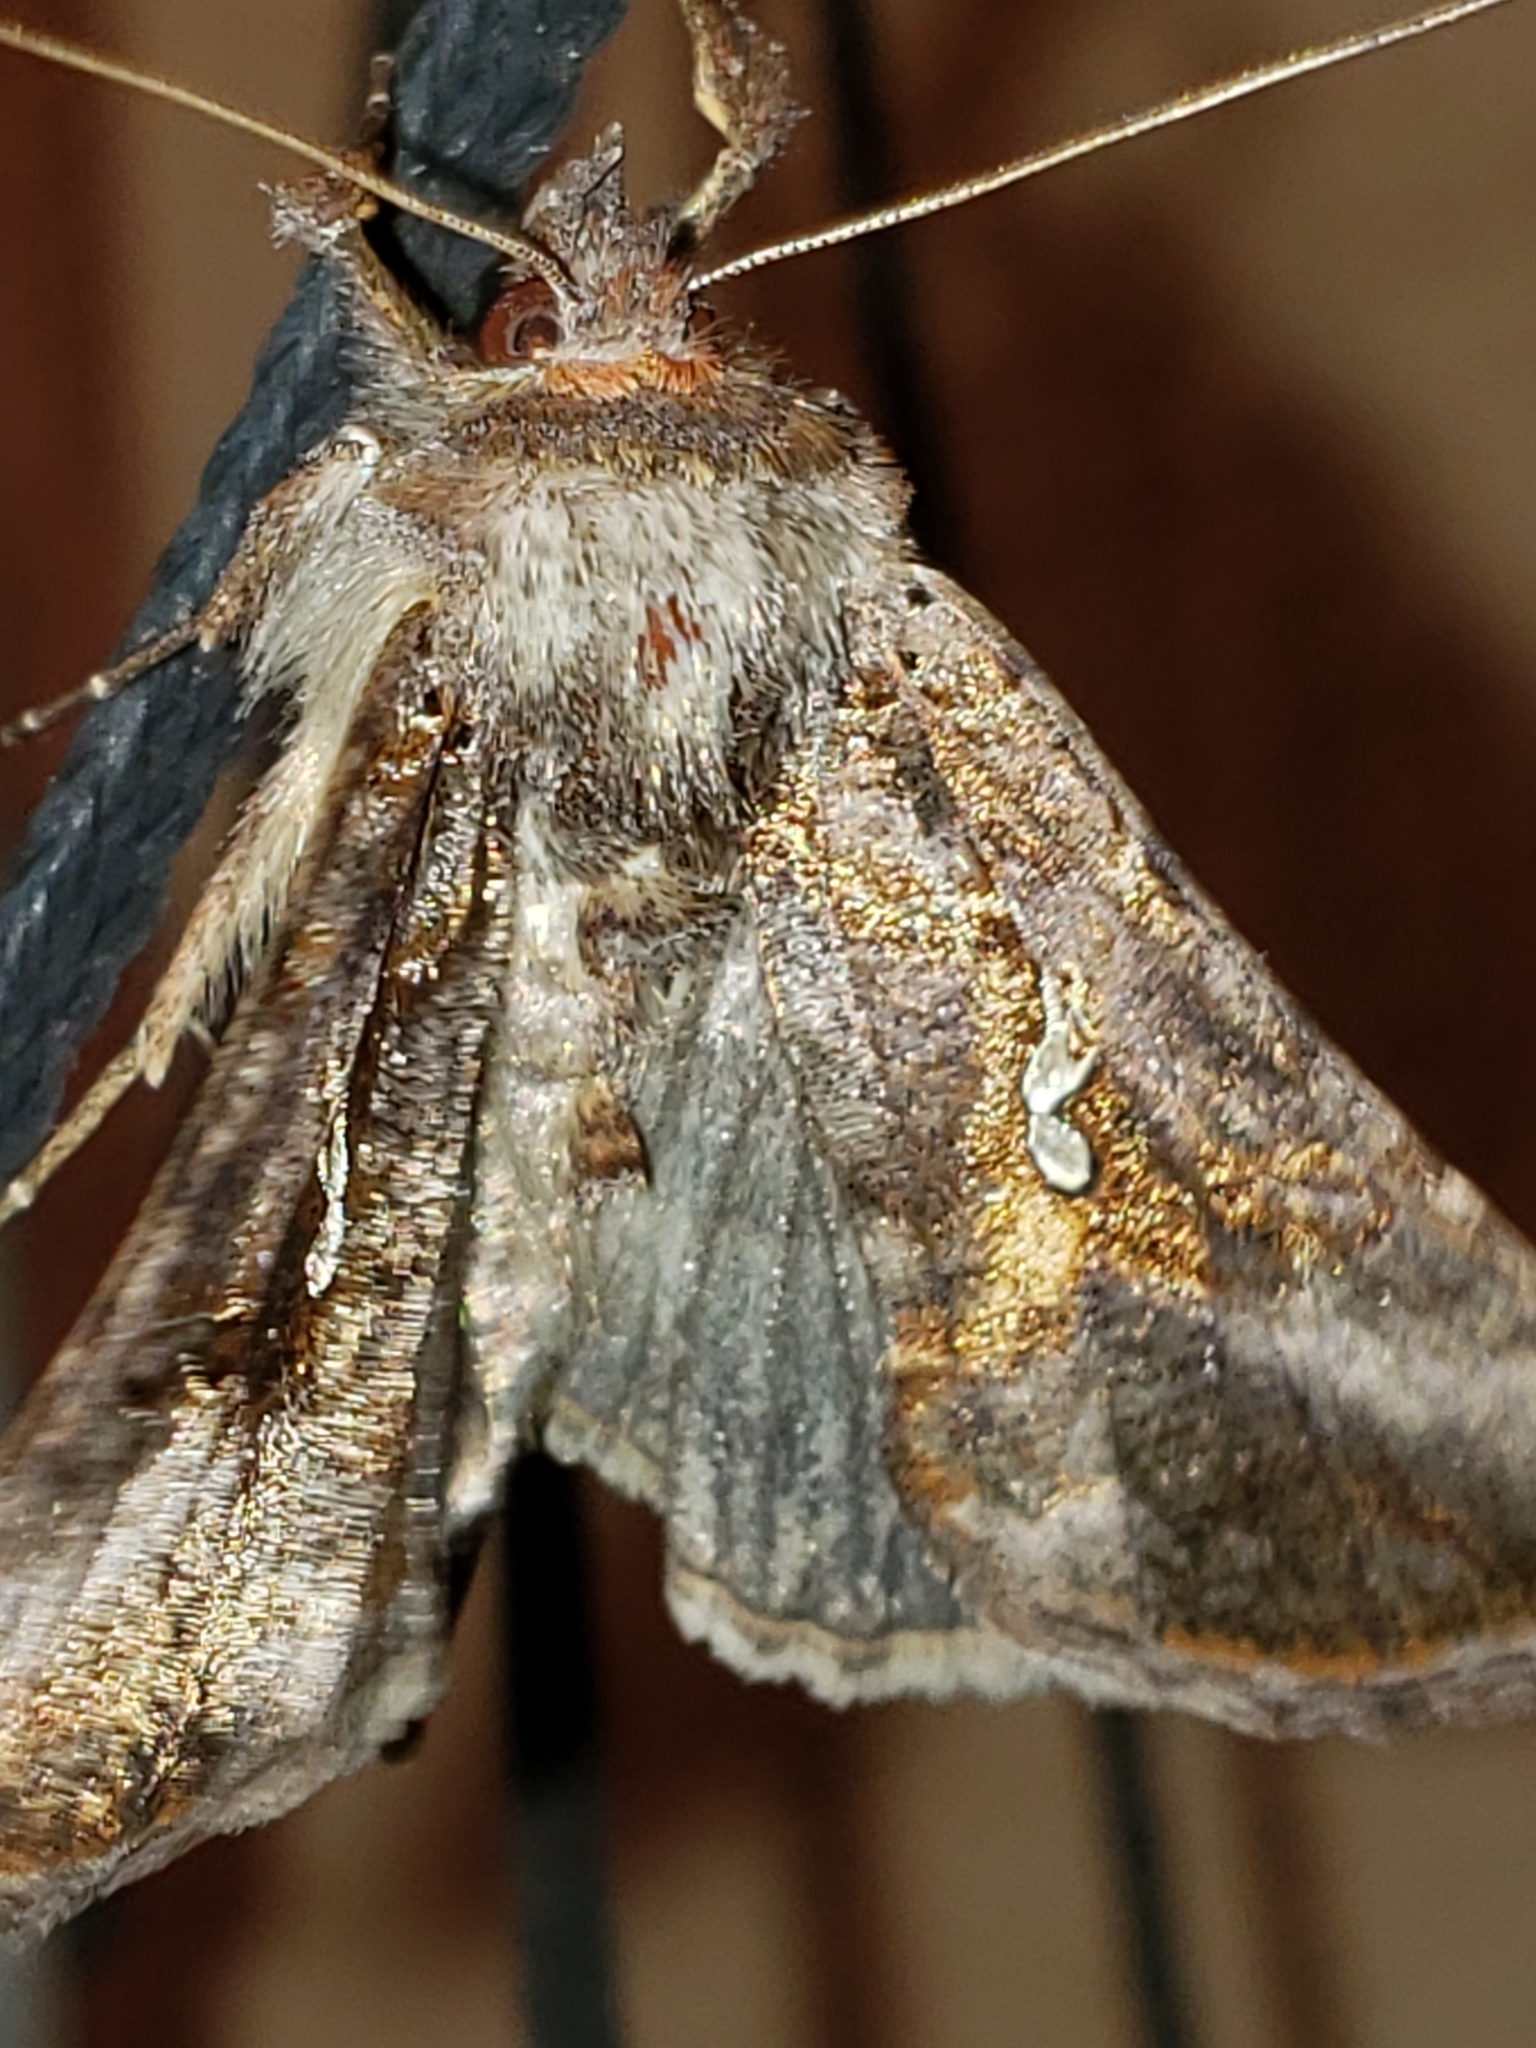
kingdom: Animalia
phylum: Arthropoda
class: Insecta
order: Lepidoptera
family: Noctuidae
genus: Autographa
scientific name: Autographa precationis
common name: Common looper moth
